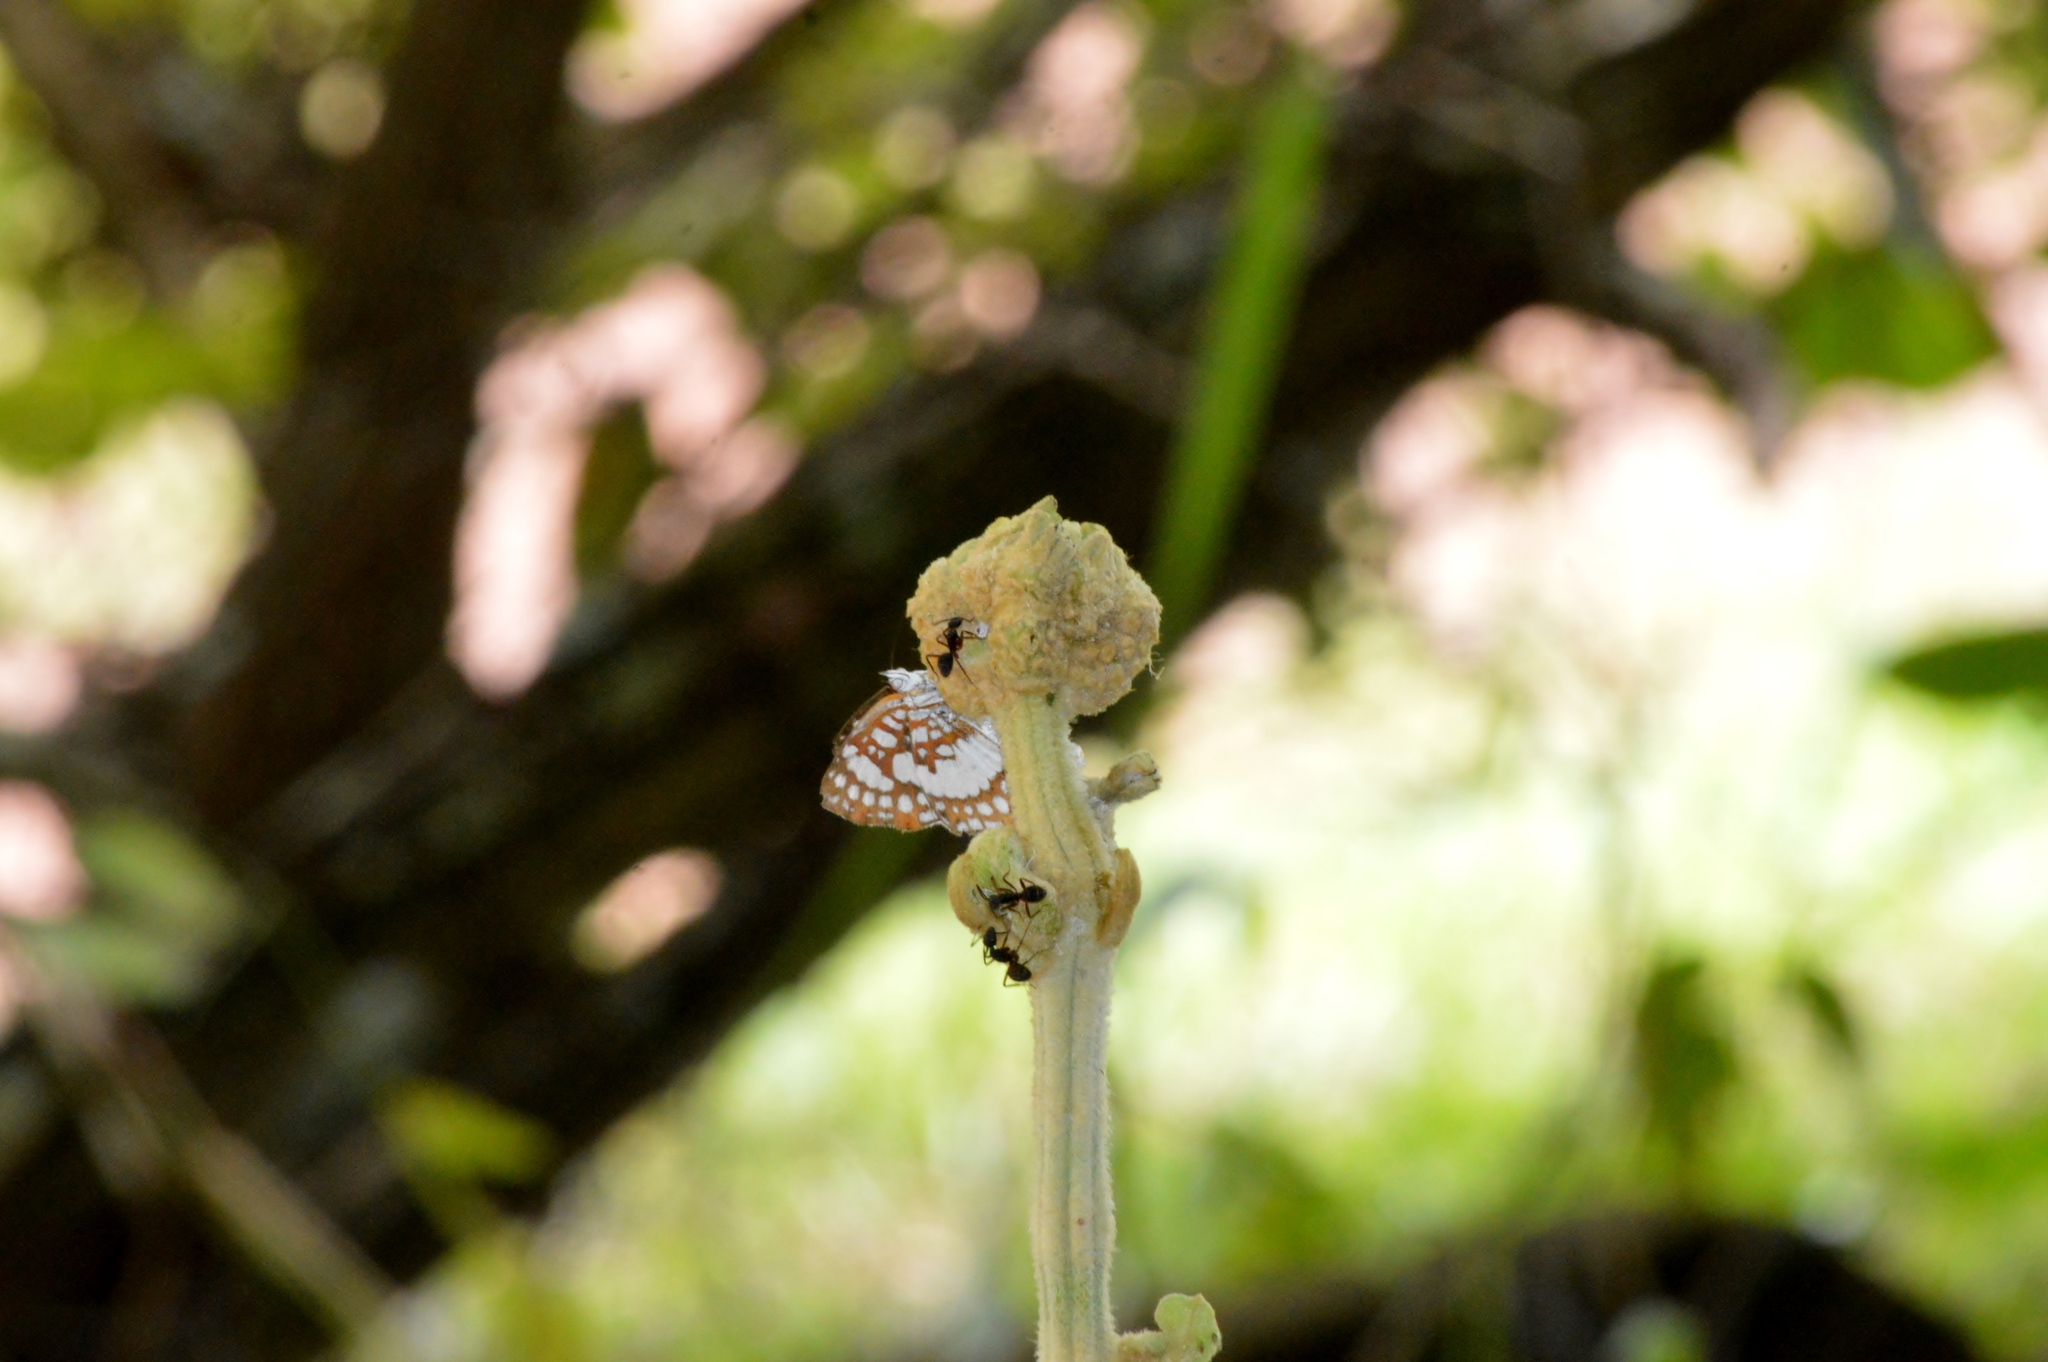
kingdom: Animalia
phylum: Arthropoda
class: Insecta
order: Lepidoptera
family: Riodinidae
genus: Ariconias
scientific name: Ariconias glaphyra
